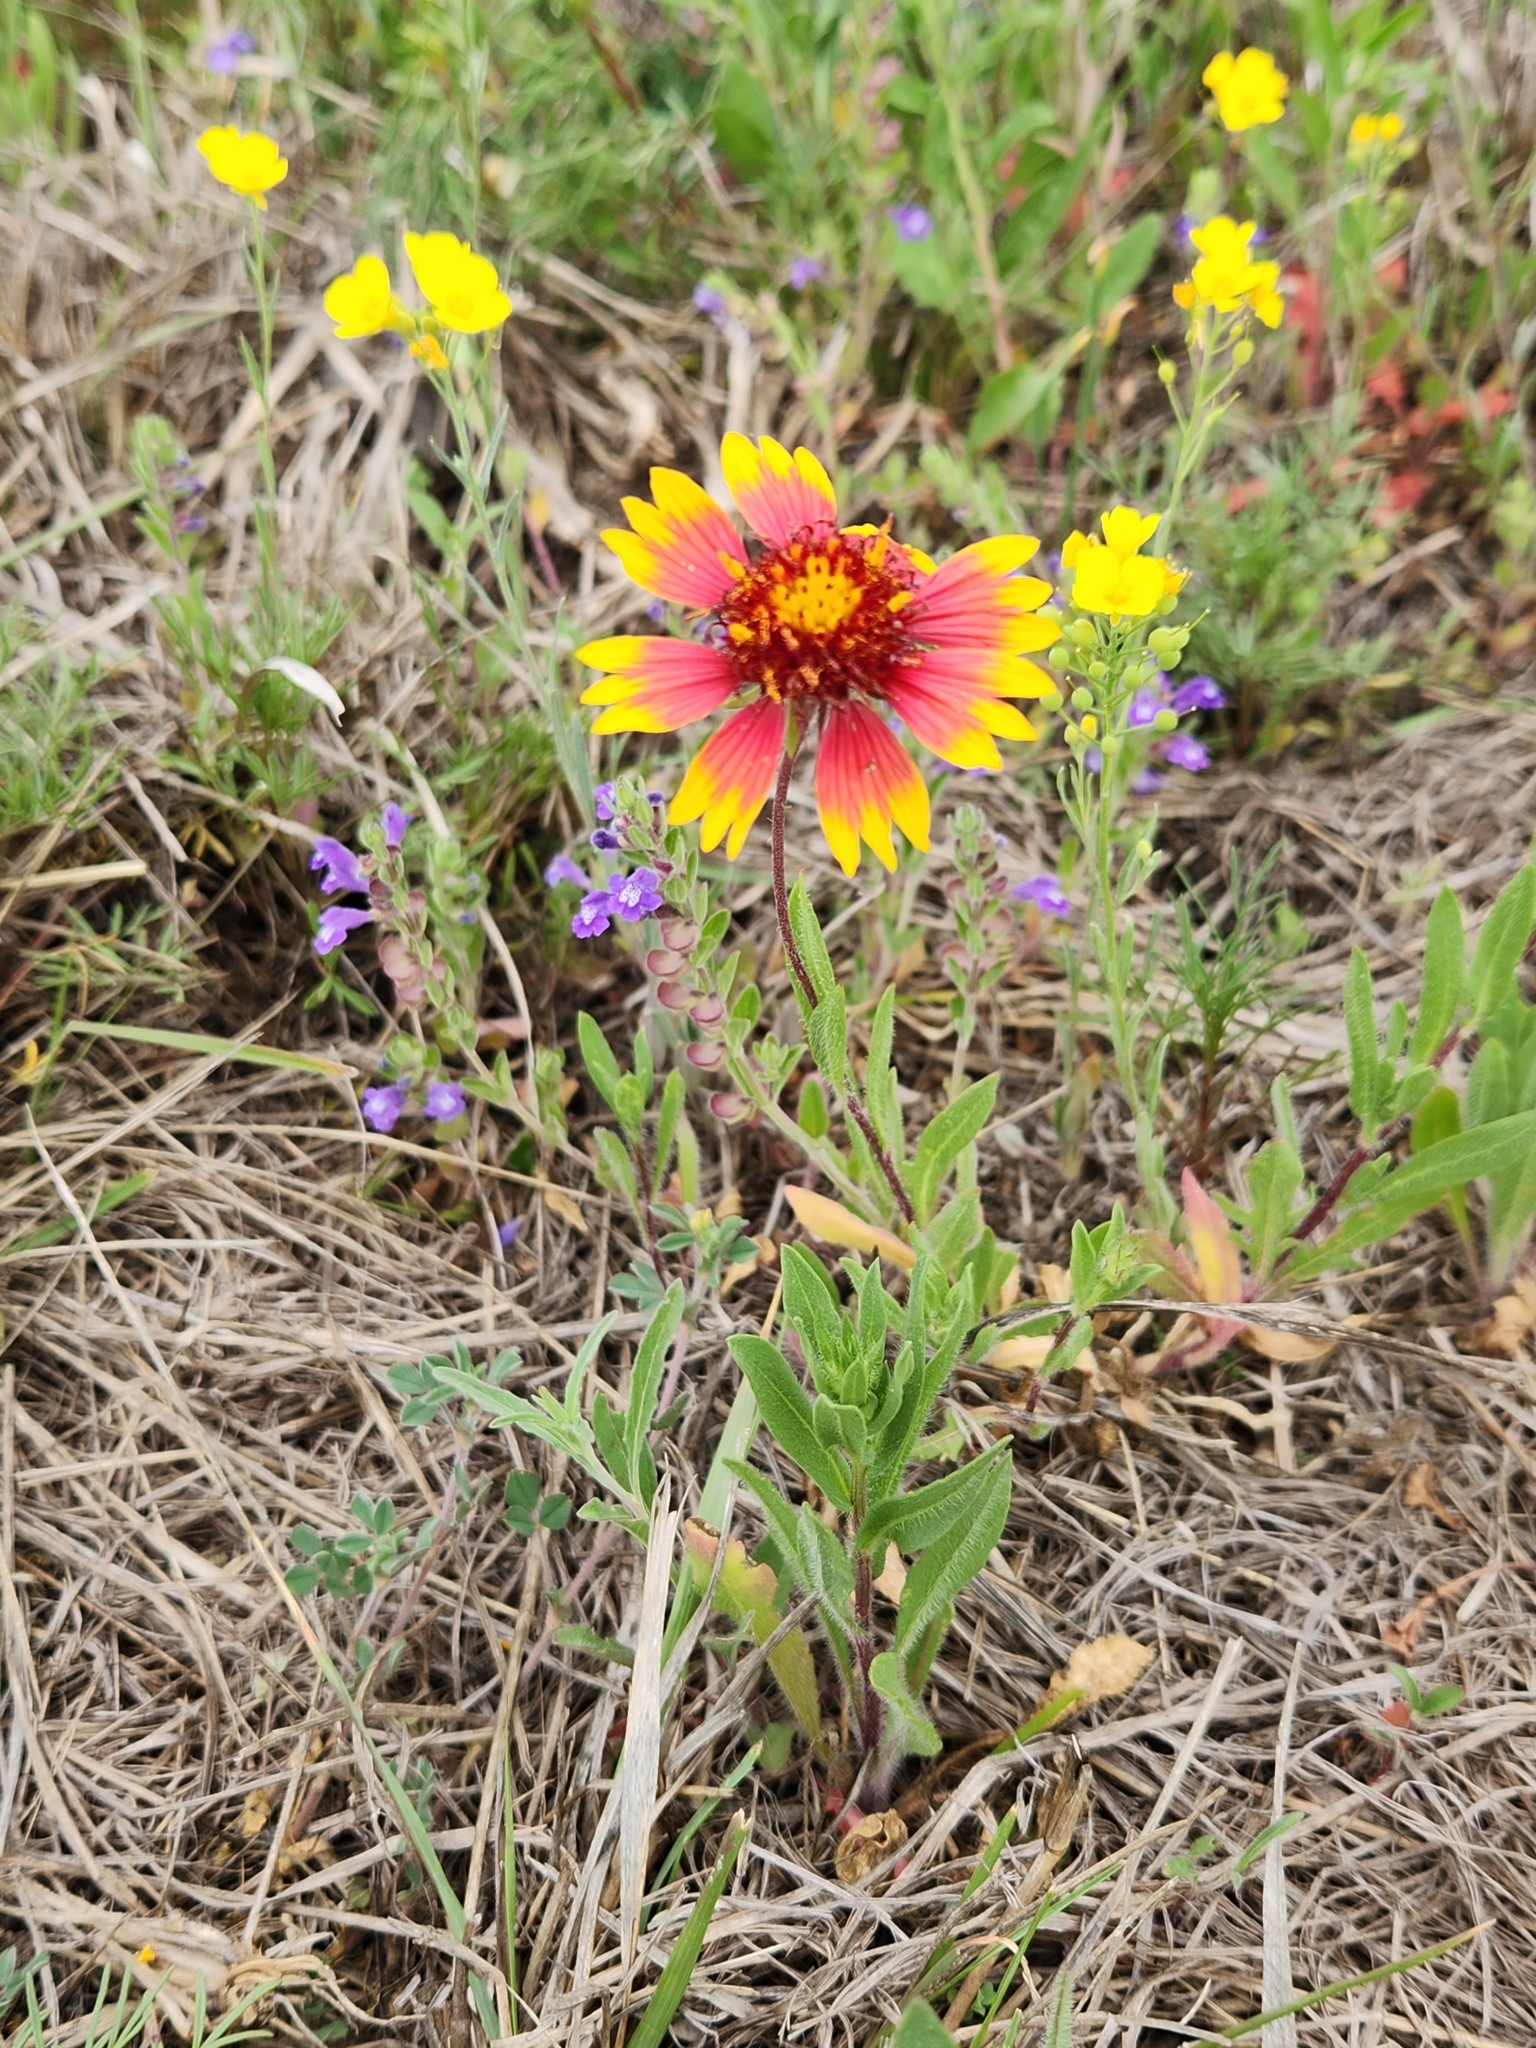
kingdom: Plantae
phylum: Tracheophyta
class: Magnoliopsida
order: Asterales
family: Asteraceae
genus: Gaillardia
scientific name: Gaillardia pulchella
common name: Firewheel
